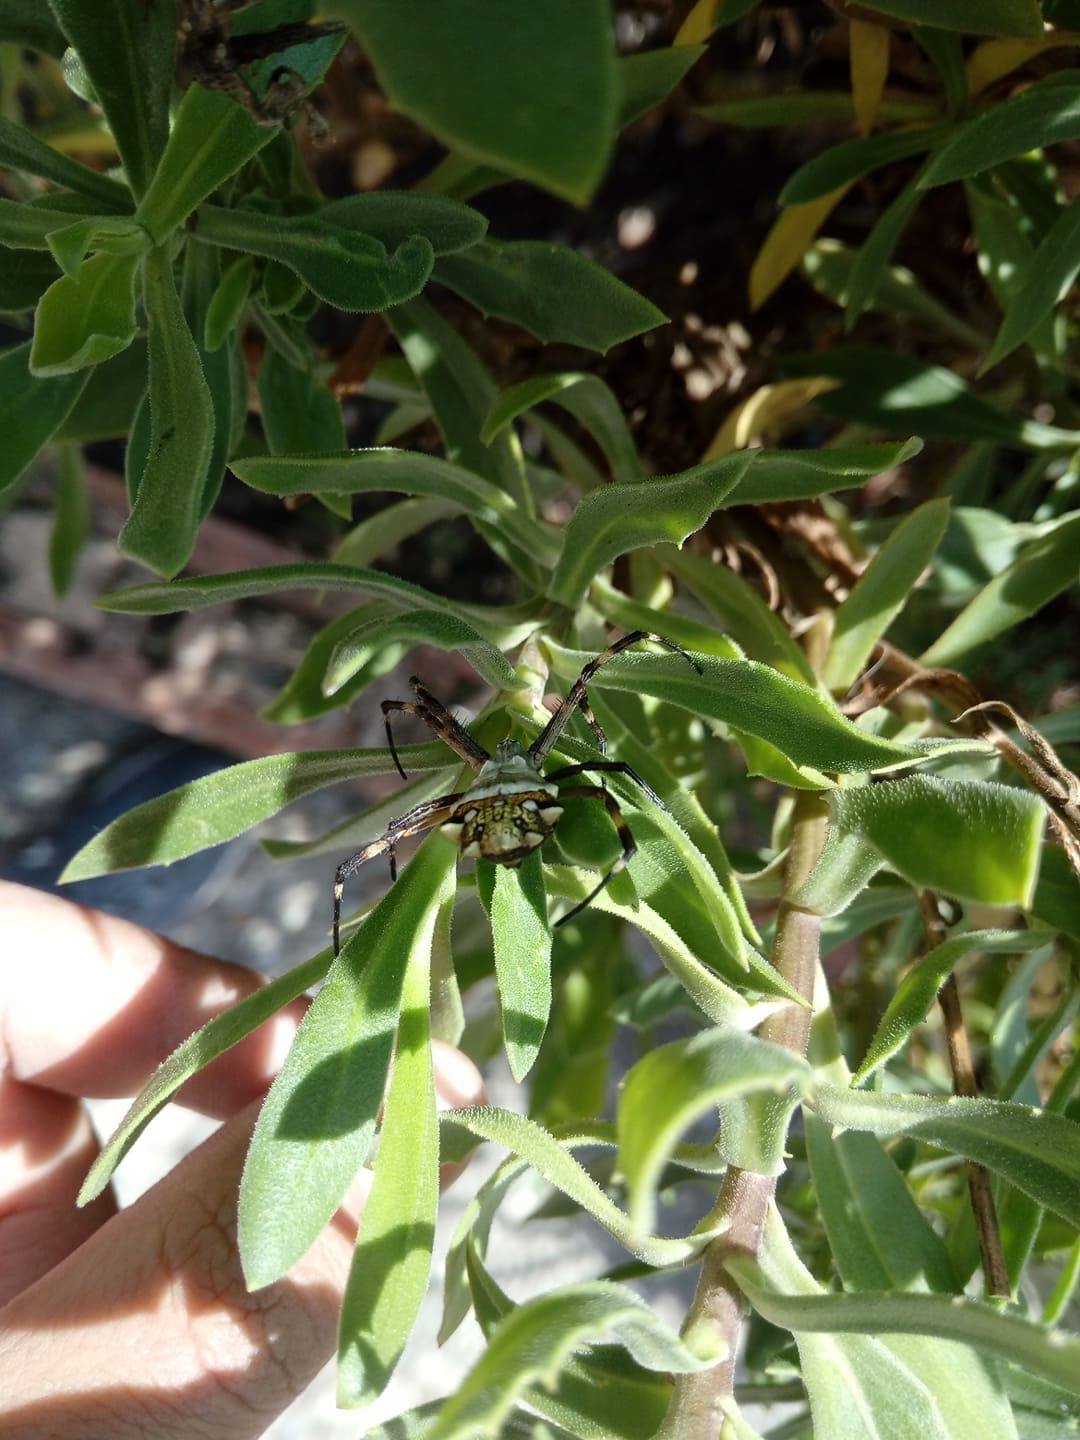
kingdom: Animalia
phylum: Arthropoda
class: Arachnida
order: Araneae
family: Araneidae
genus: Argiope
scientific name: Argiope argentata
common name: Orb weavers
